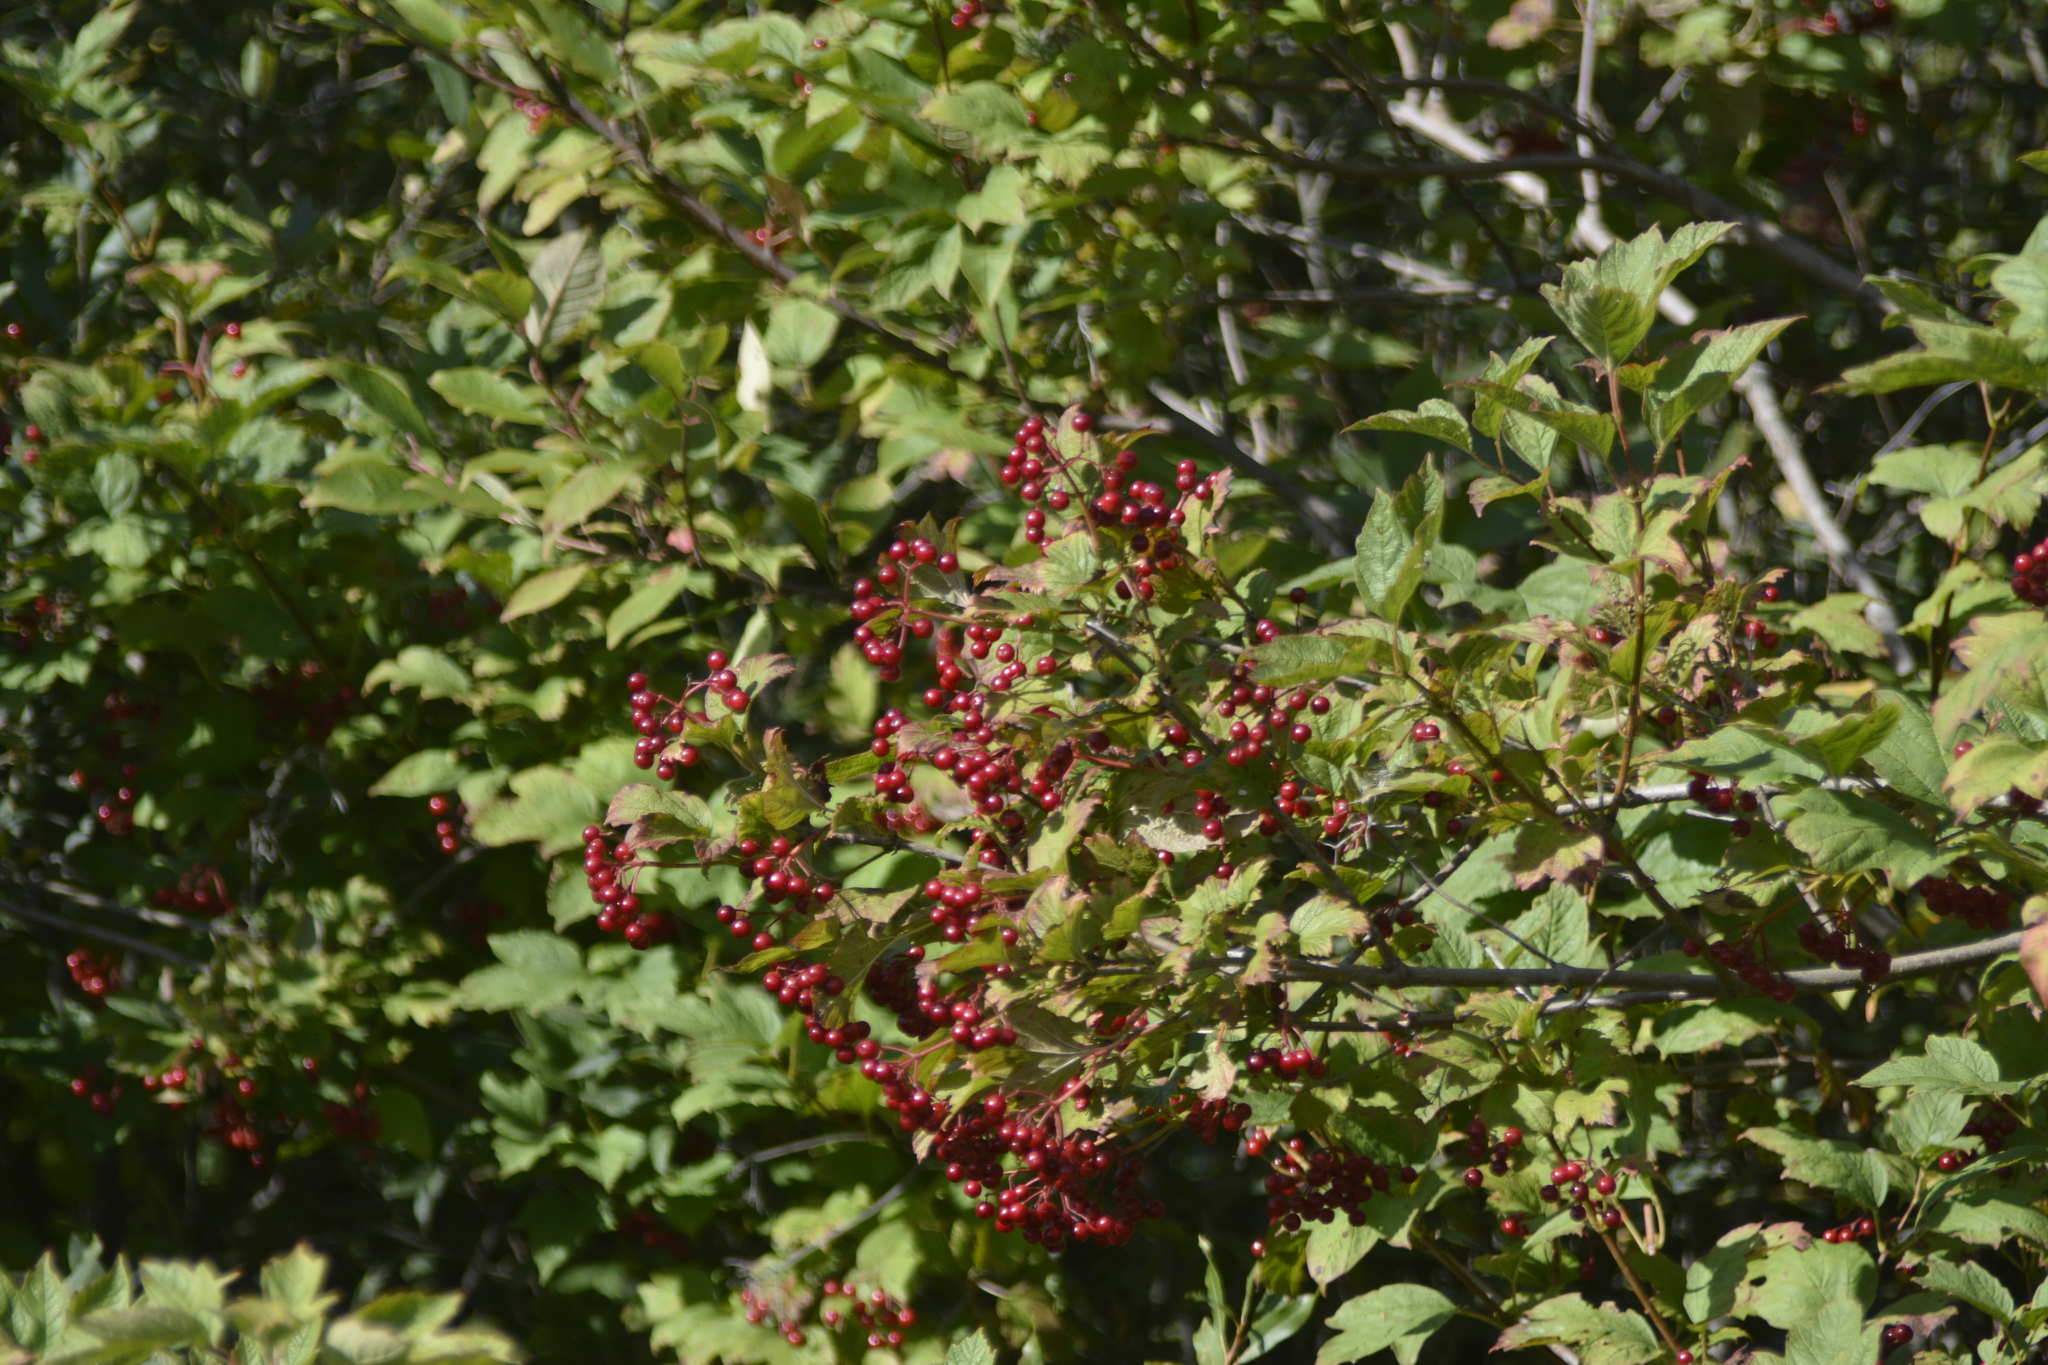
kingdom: Plantae
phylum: Tracheophyta
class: Magnoliopsida
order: Dipsacales
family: Viburnaceae
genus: Viburnum
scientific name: Viburnum opulus
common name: Guelder-rose
